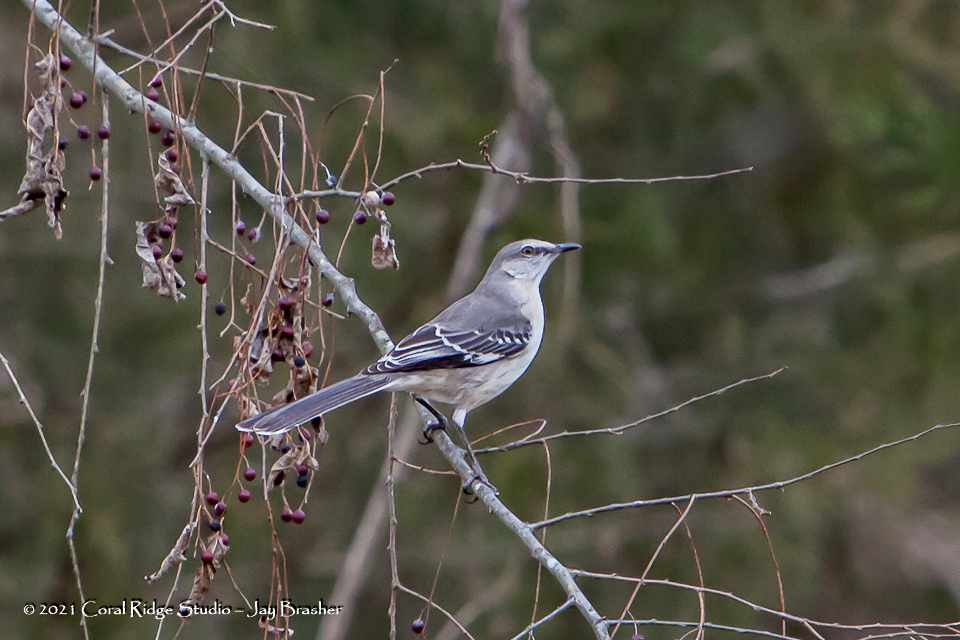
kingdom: Animalia
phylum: Chordata
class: Aves
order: Passeriformes
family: Mimidae
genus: Mimus
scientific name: Mimus polyglottos
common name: Northern mockingbird
